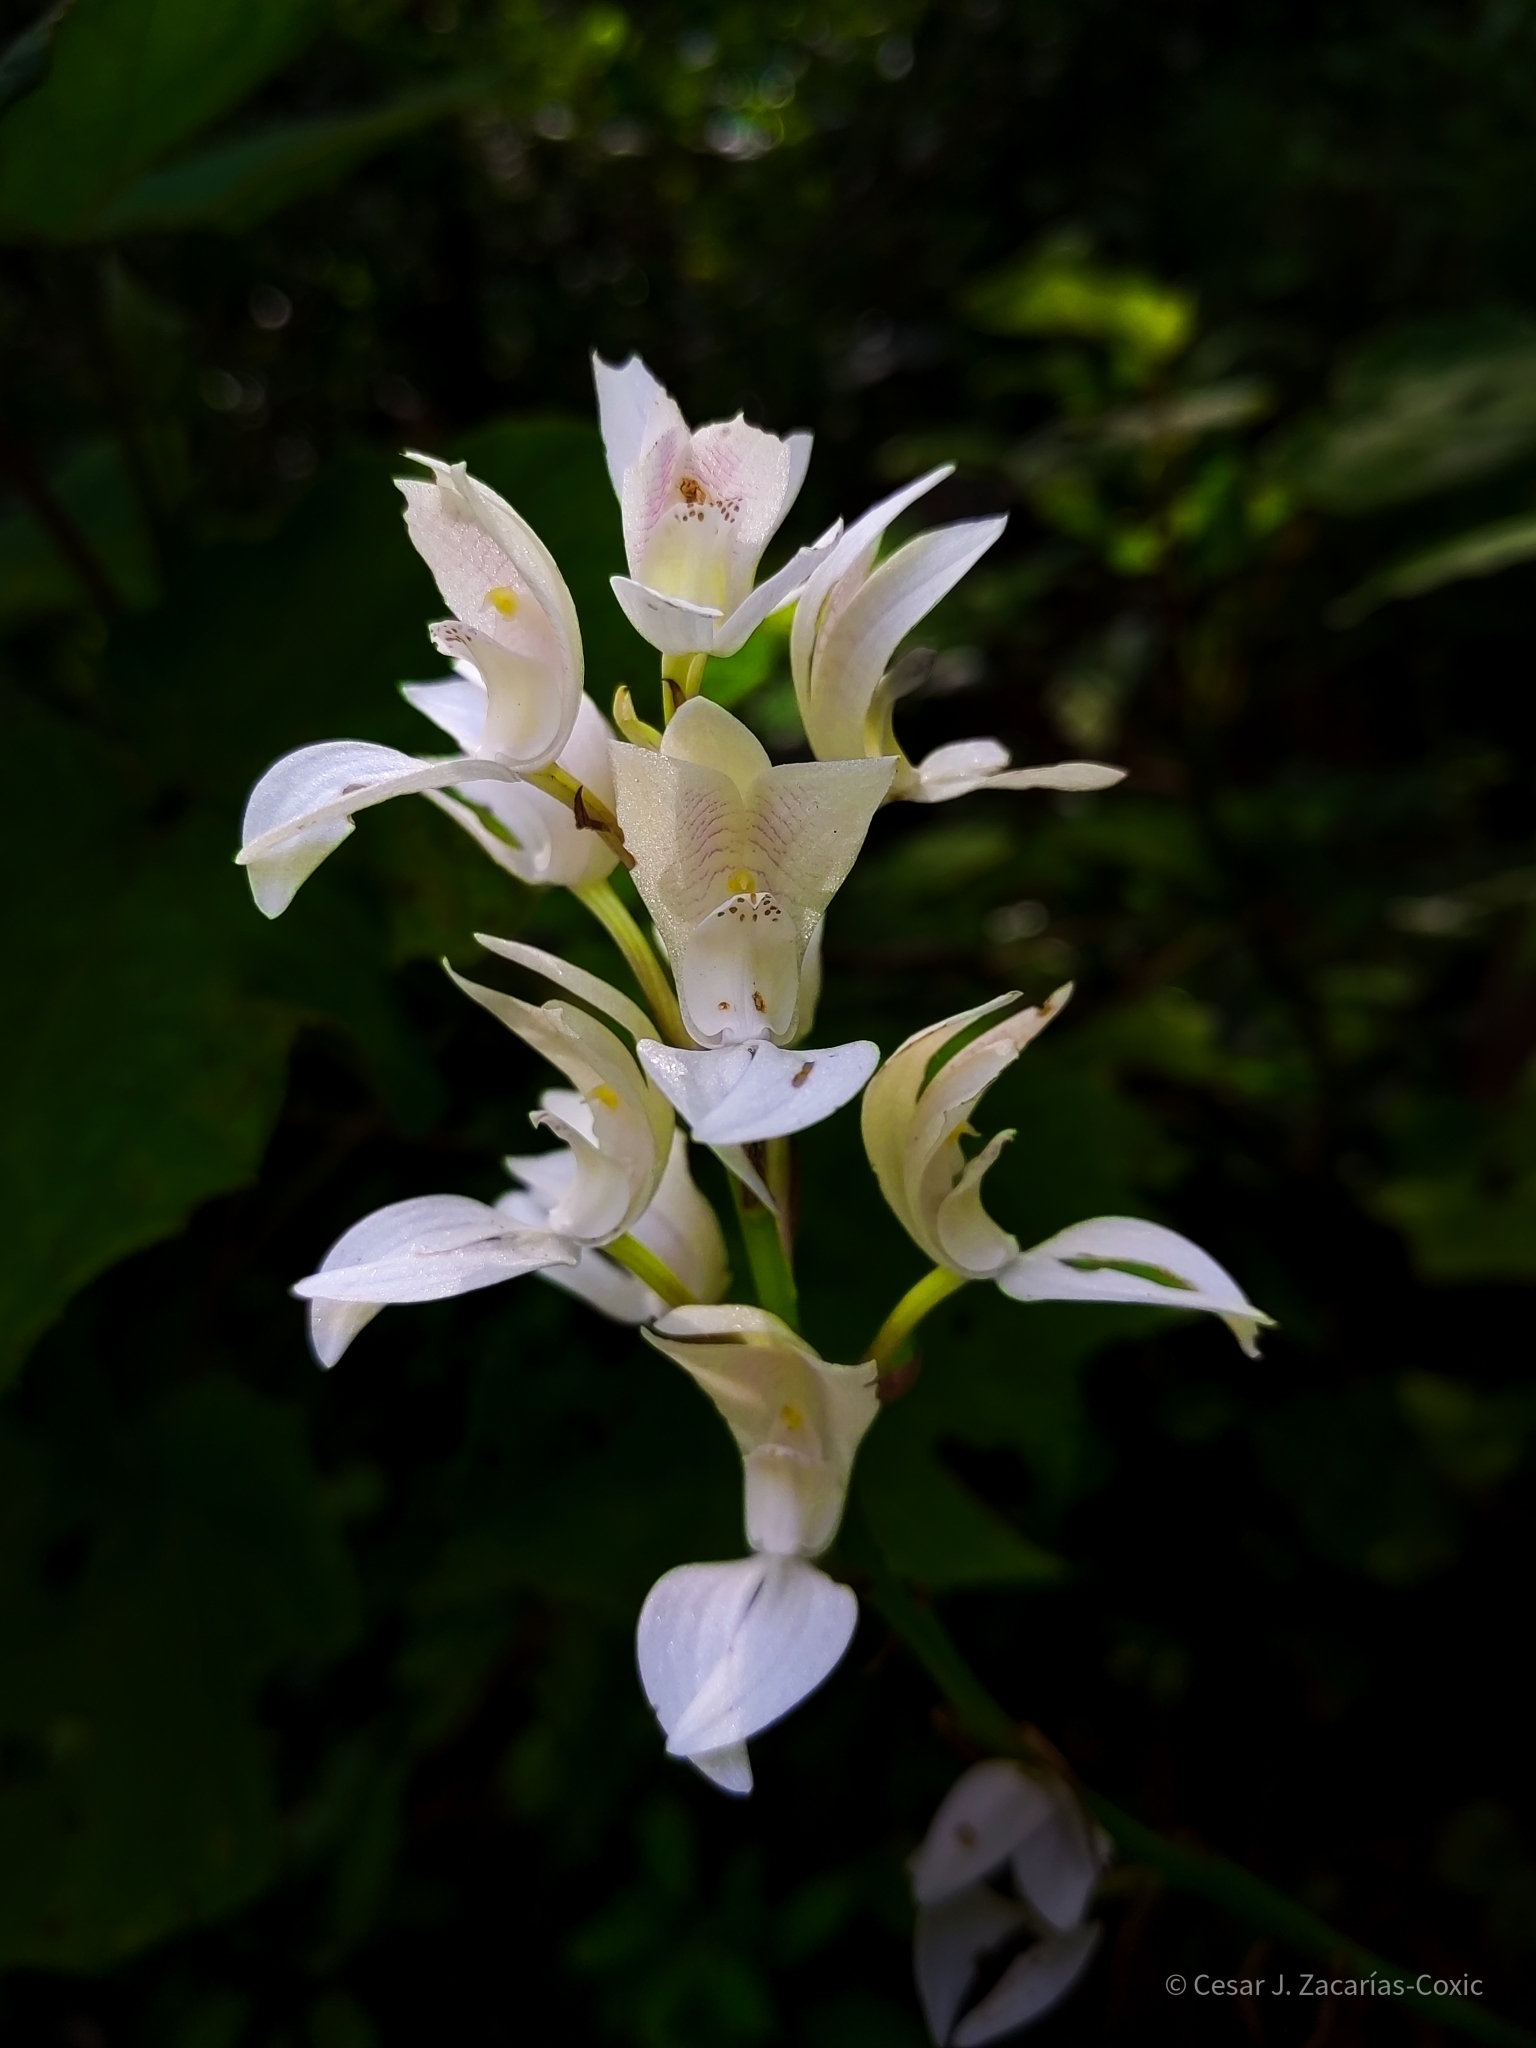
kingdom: Plantae
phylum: Tracheophyta
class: Liliopsida
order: Asparagales
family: Orchidaceae
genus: Govenia
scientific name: Govenia liliacea
